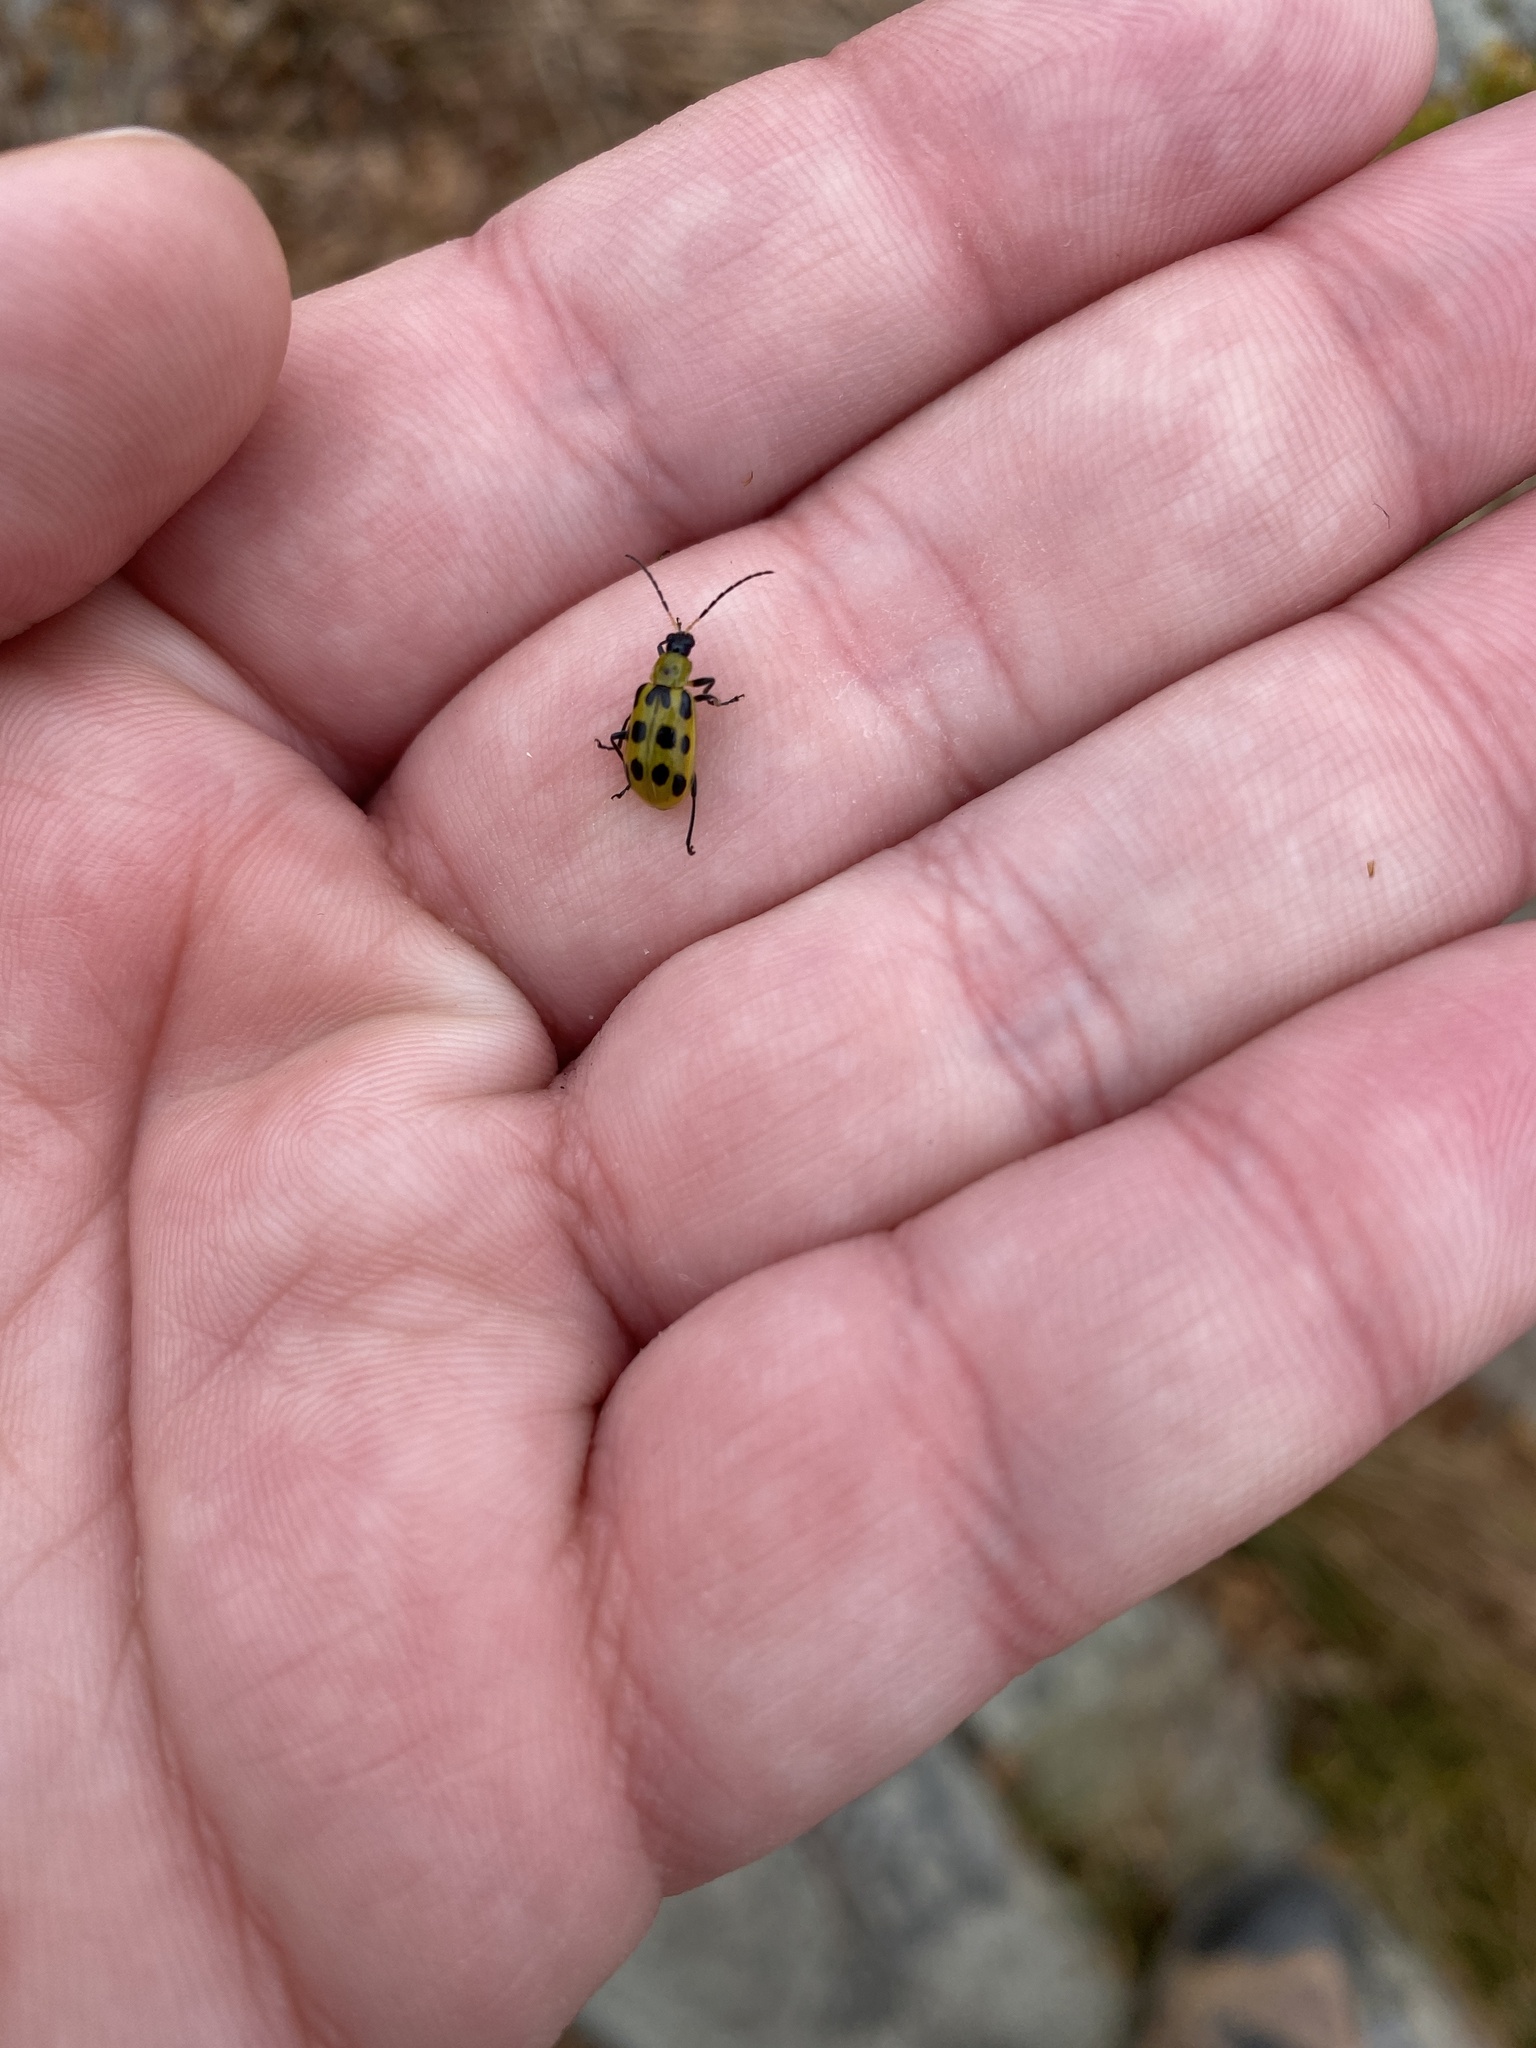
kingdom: Animalia
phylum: Arthropoda
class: Insecta
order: Coleoptera
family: Chrysomelidae
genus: Diabrotica
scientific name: Diabrotica undecimpunctata
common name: Spotted cucumber beetle
